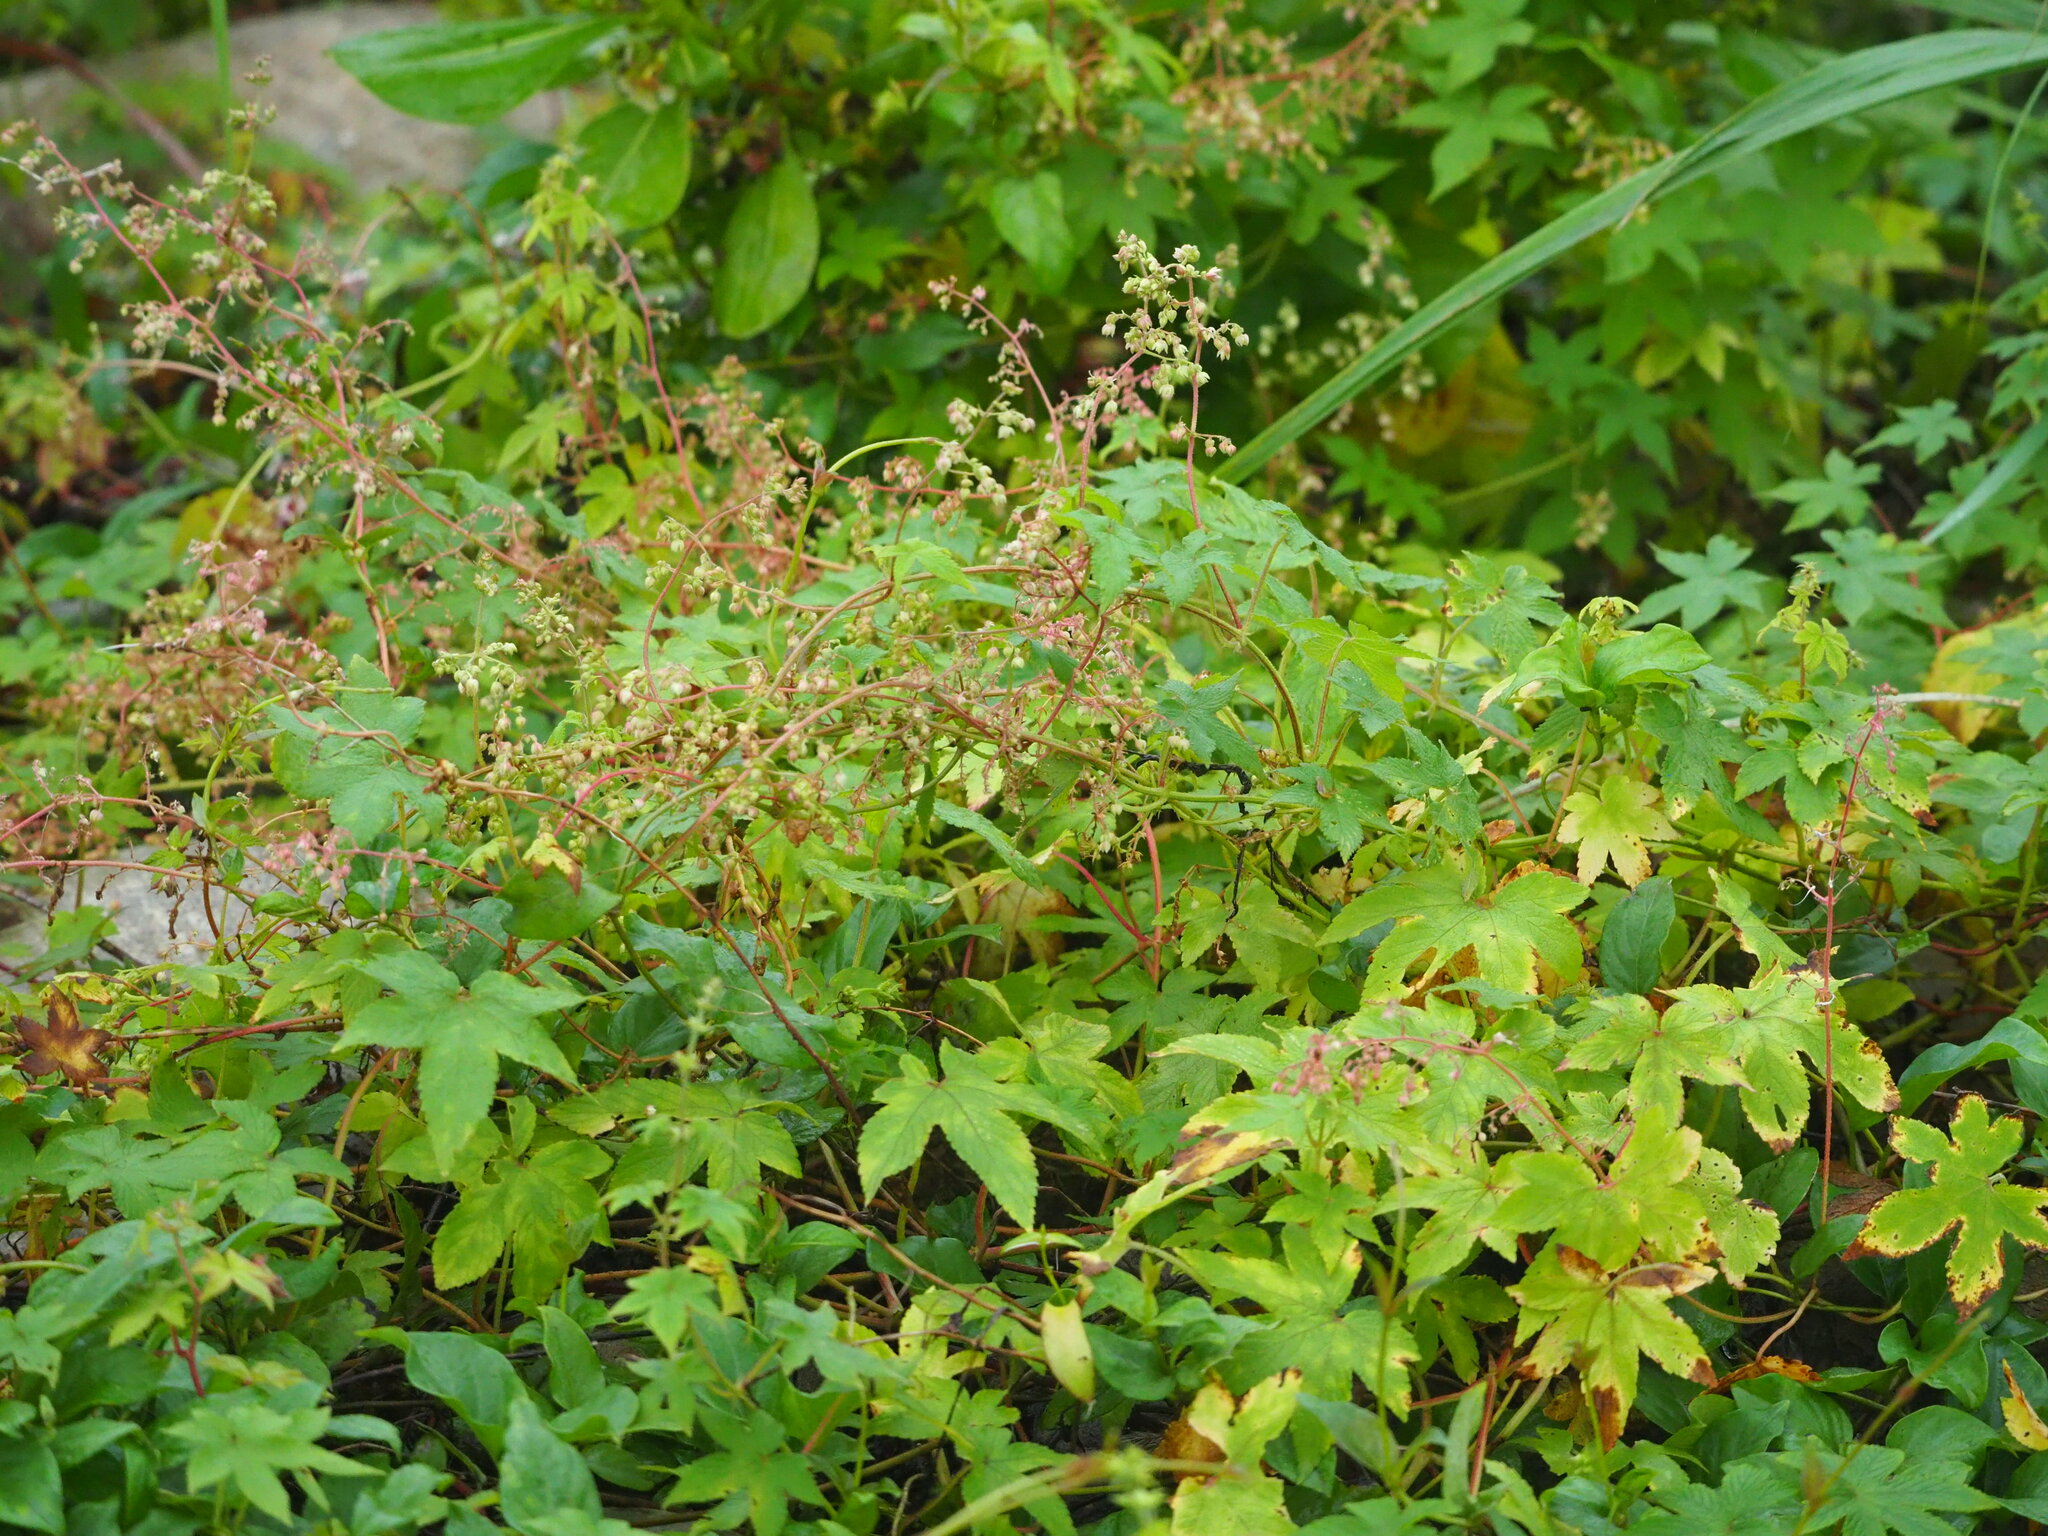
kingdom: Plantae
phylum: Tracheophyta
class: Magnoliopsida
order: Rosales
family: Cannabaceae
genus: Humulus
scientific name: Humulus scandens
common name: Japanese hop
